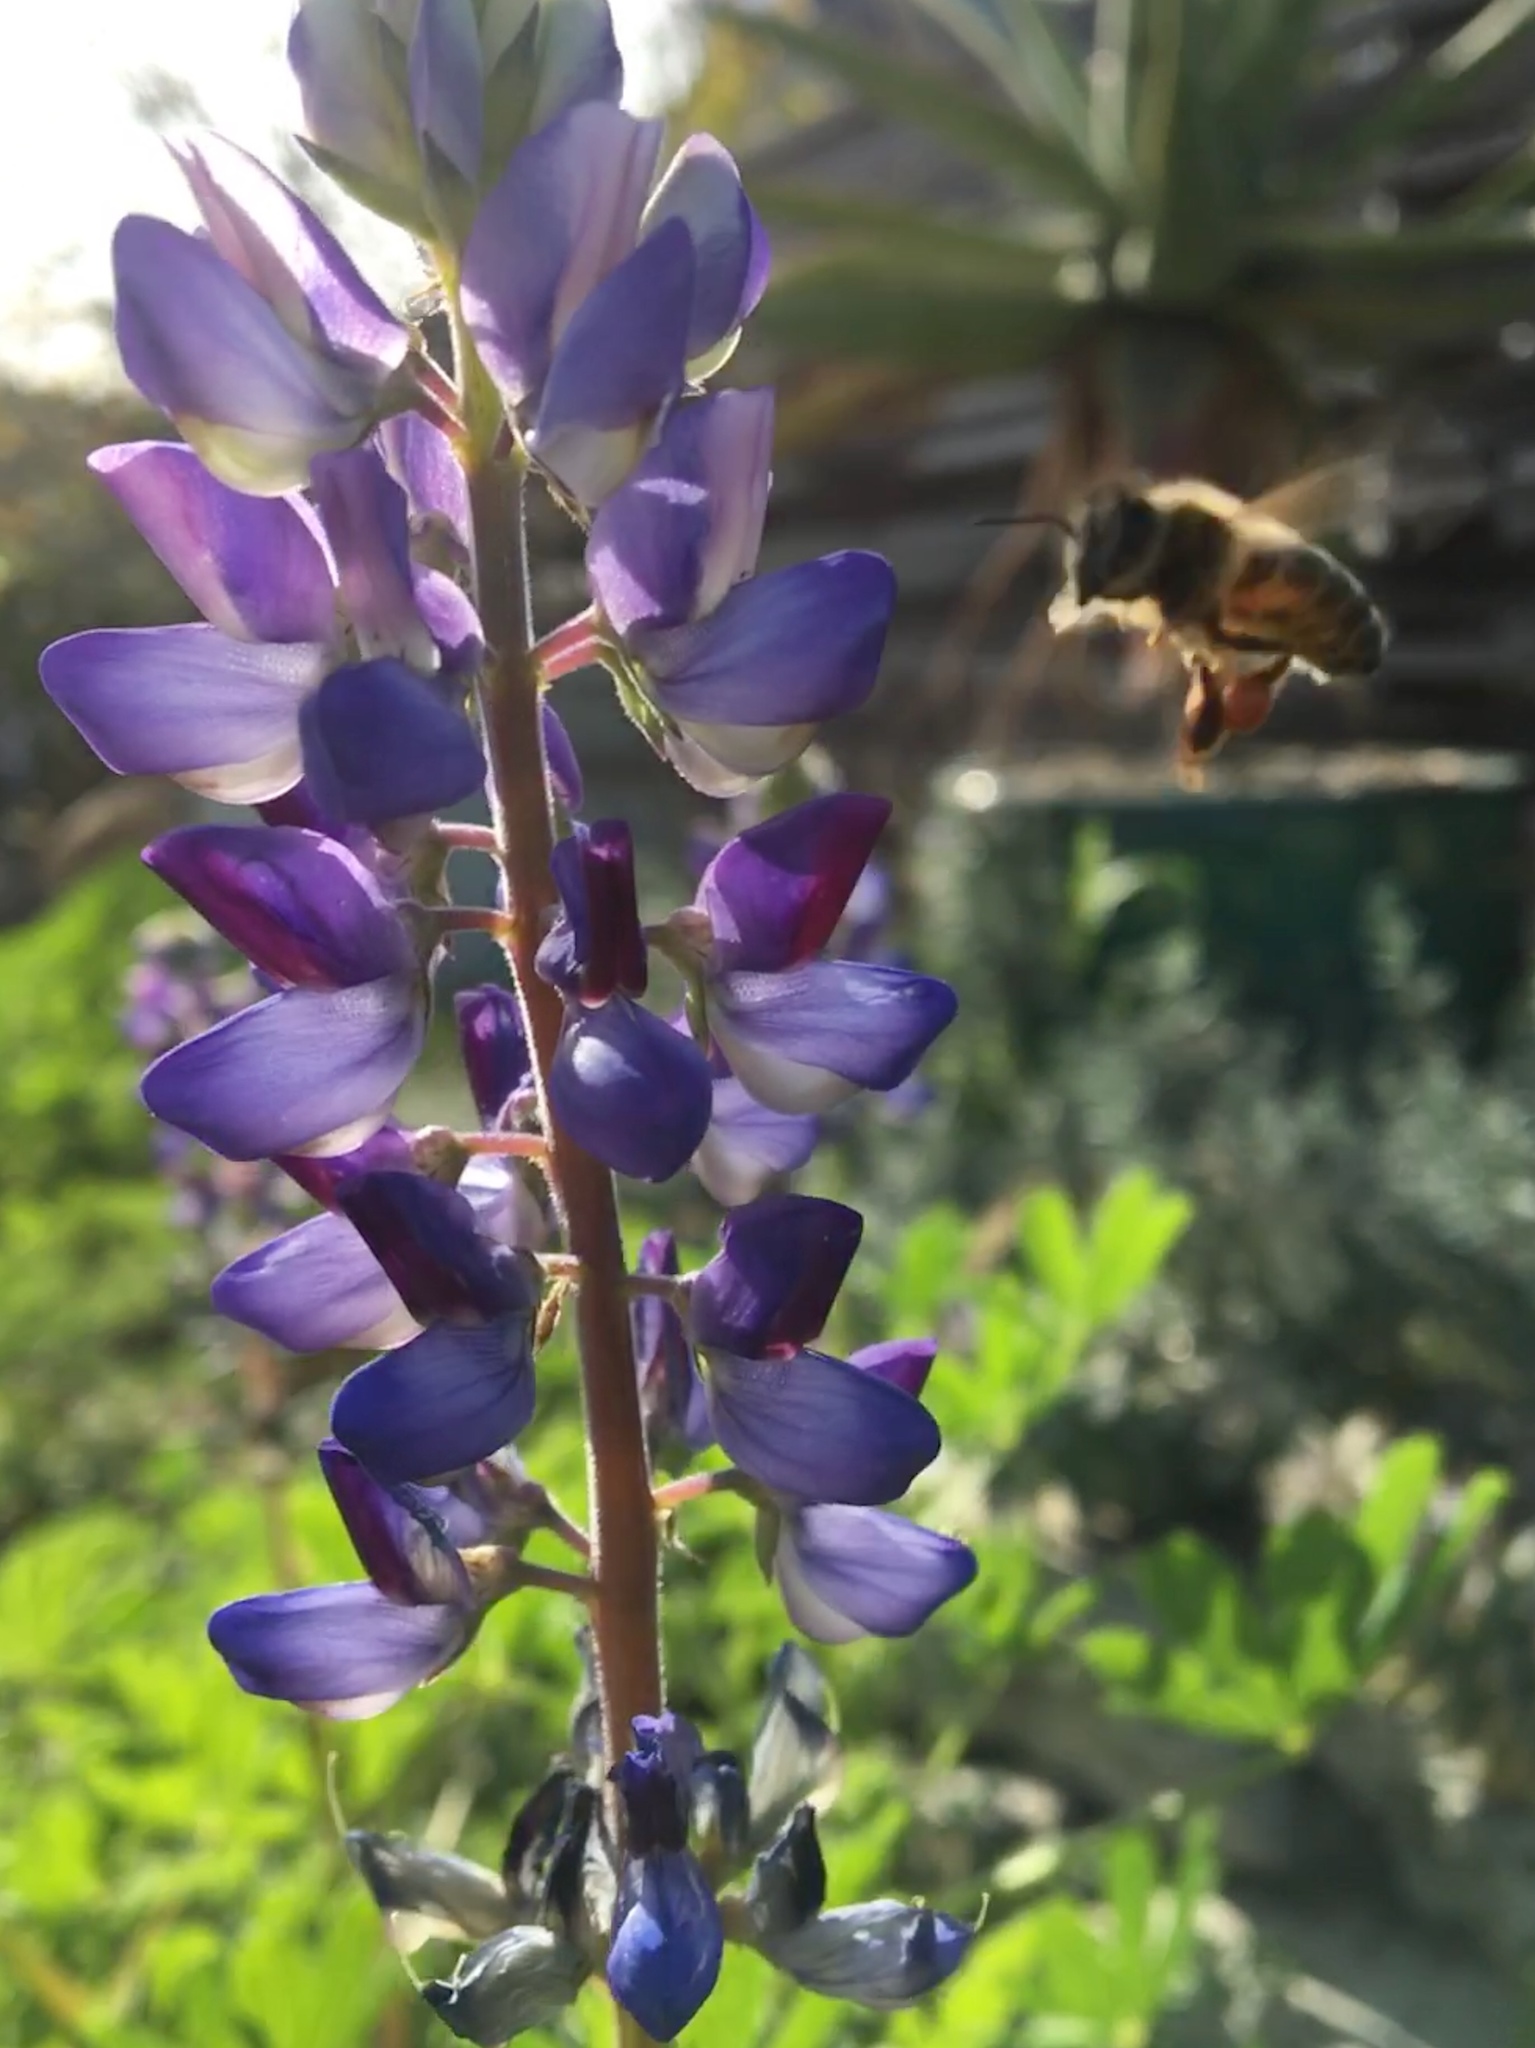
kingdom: Plantae
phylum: Tracheophyta
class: Magnoliopsida
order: Fabales
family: Fabaceae
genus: Lupinus
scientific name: Lupinus succulentus
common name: Arroyo lupine
